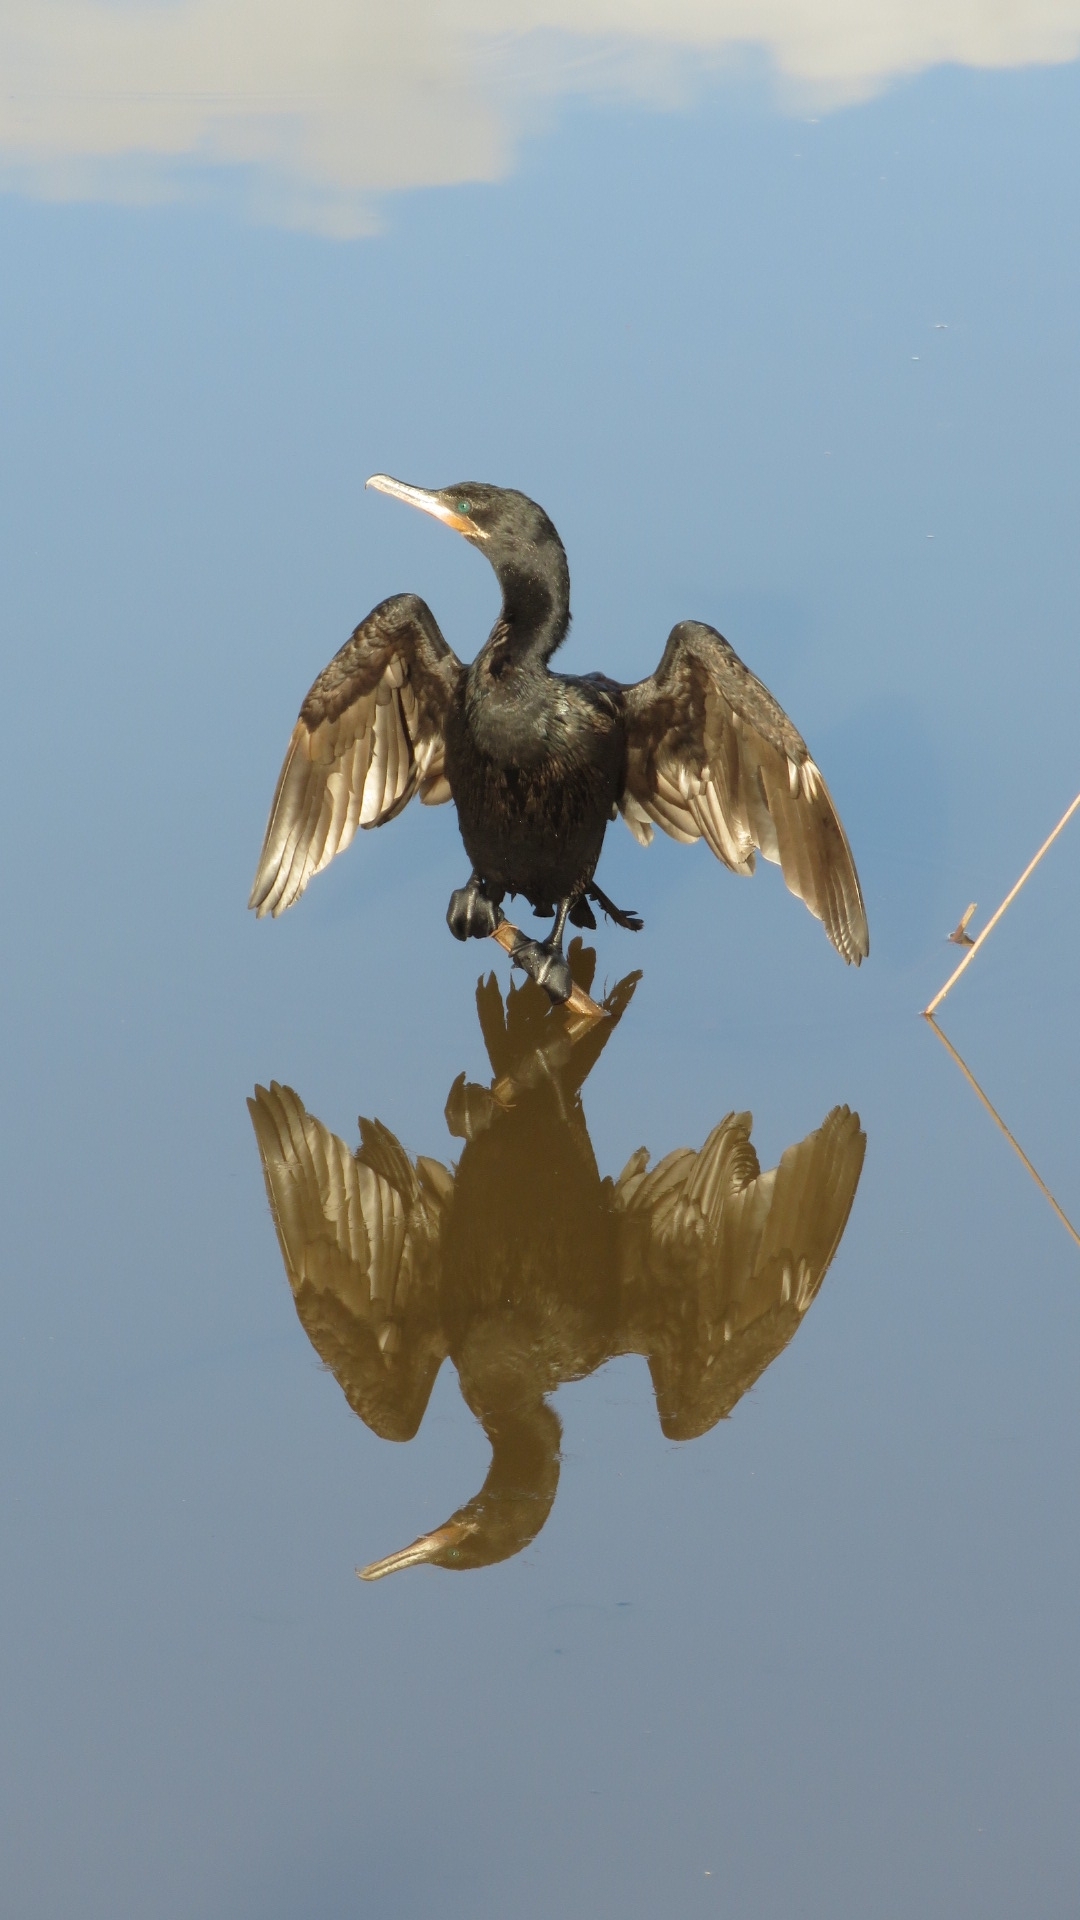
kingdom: Animalia
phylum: Chordata
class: Aves
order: Suliformes
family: Phalacrocoracidae
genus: Phalacrocorax
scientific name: Phalacrocorax brasilianus
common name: Neotropic cormorant
